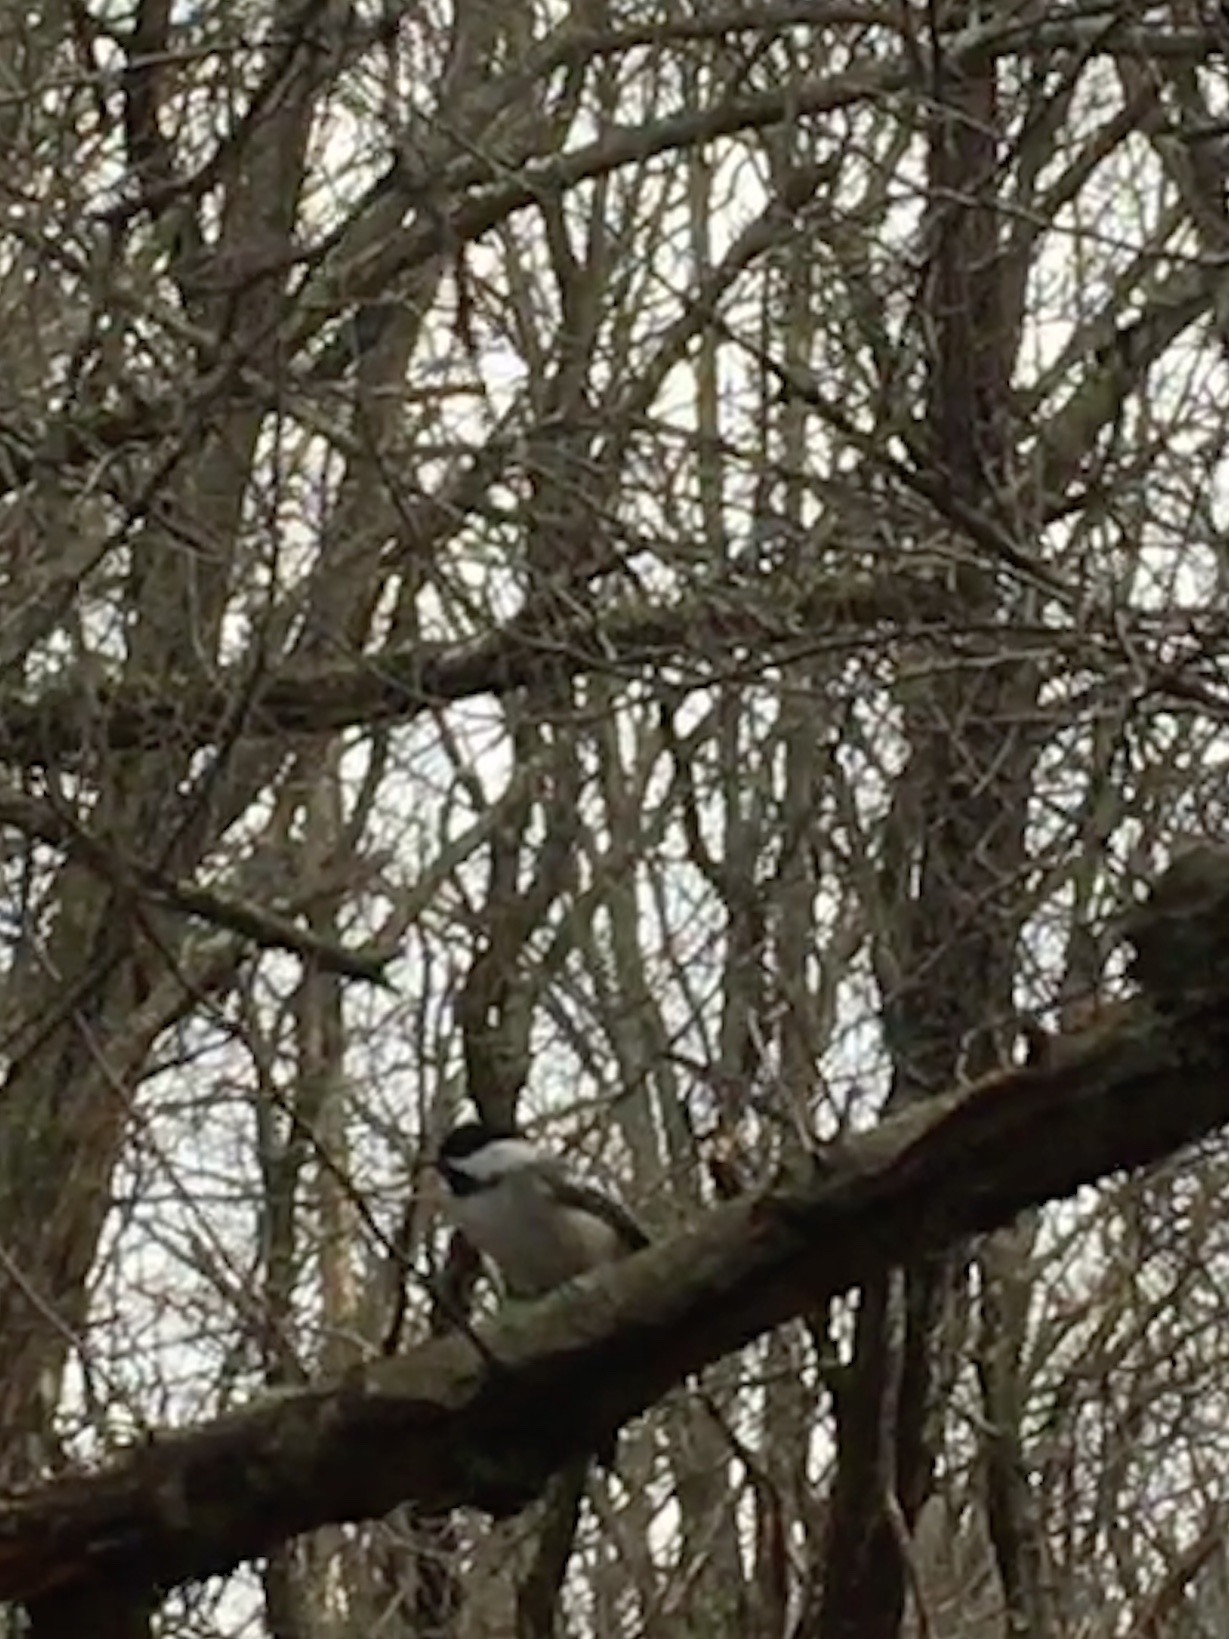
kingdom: Animalia
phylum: Chordata
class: Aves
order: Passeriformes
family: Paridae
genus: Poecile
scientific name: Poecile atricapillus
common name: Black-capped chickadee
